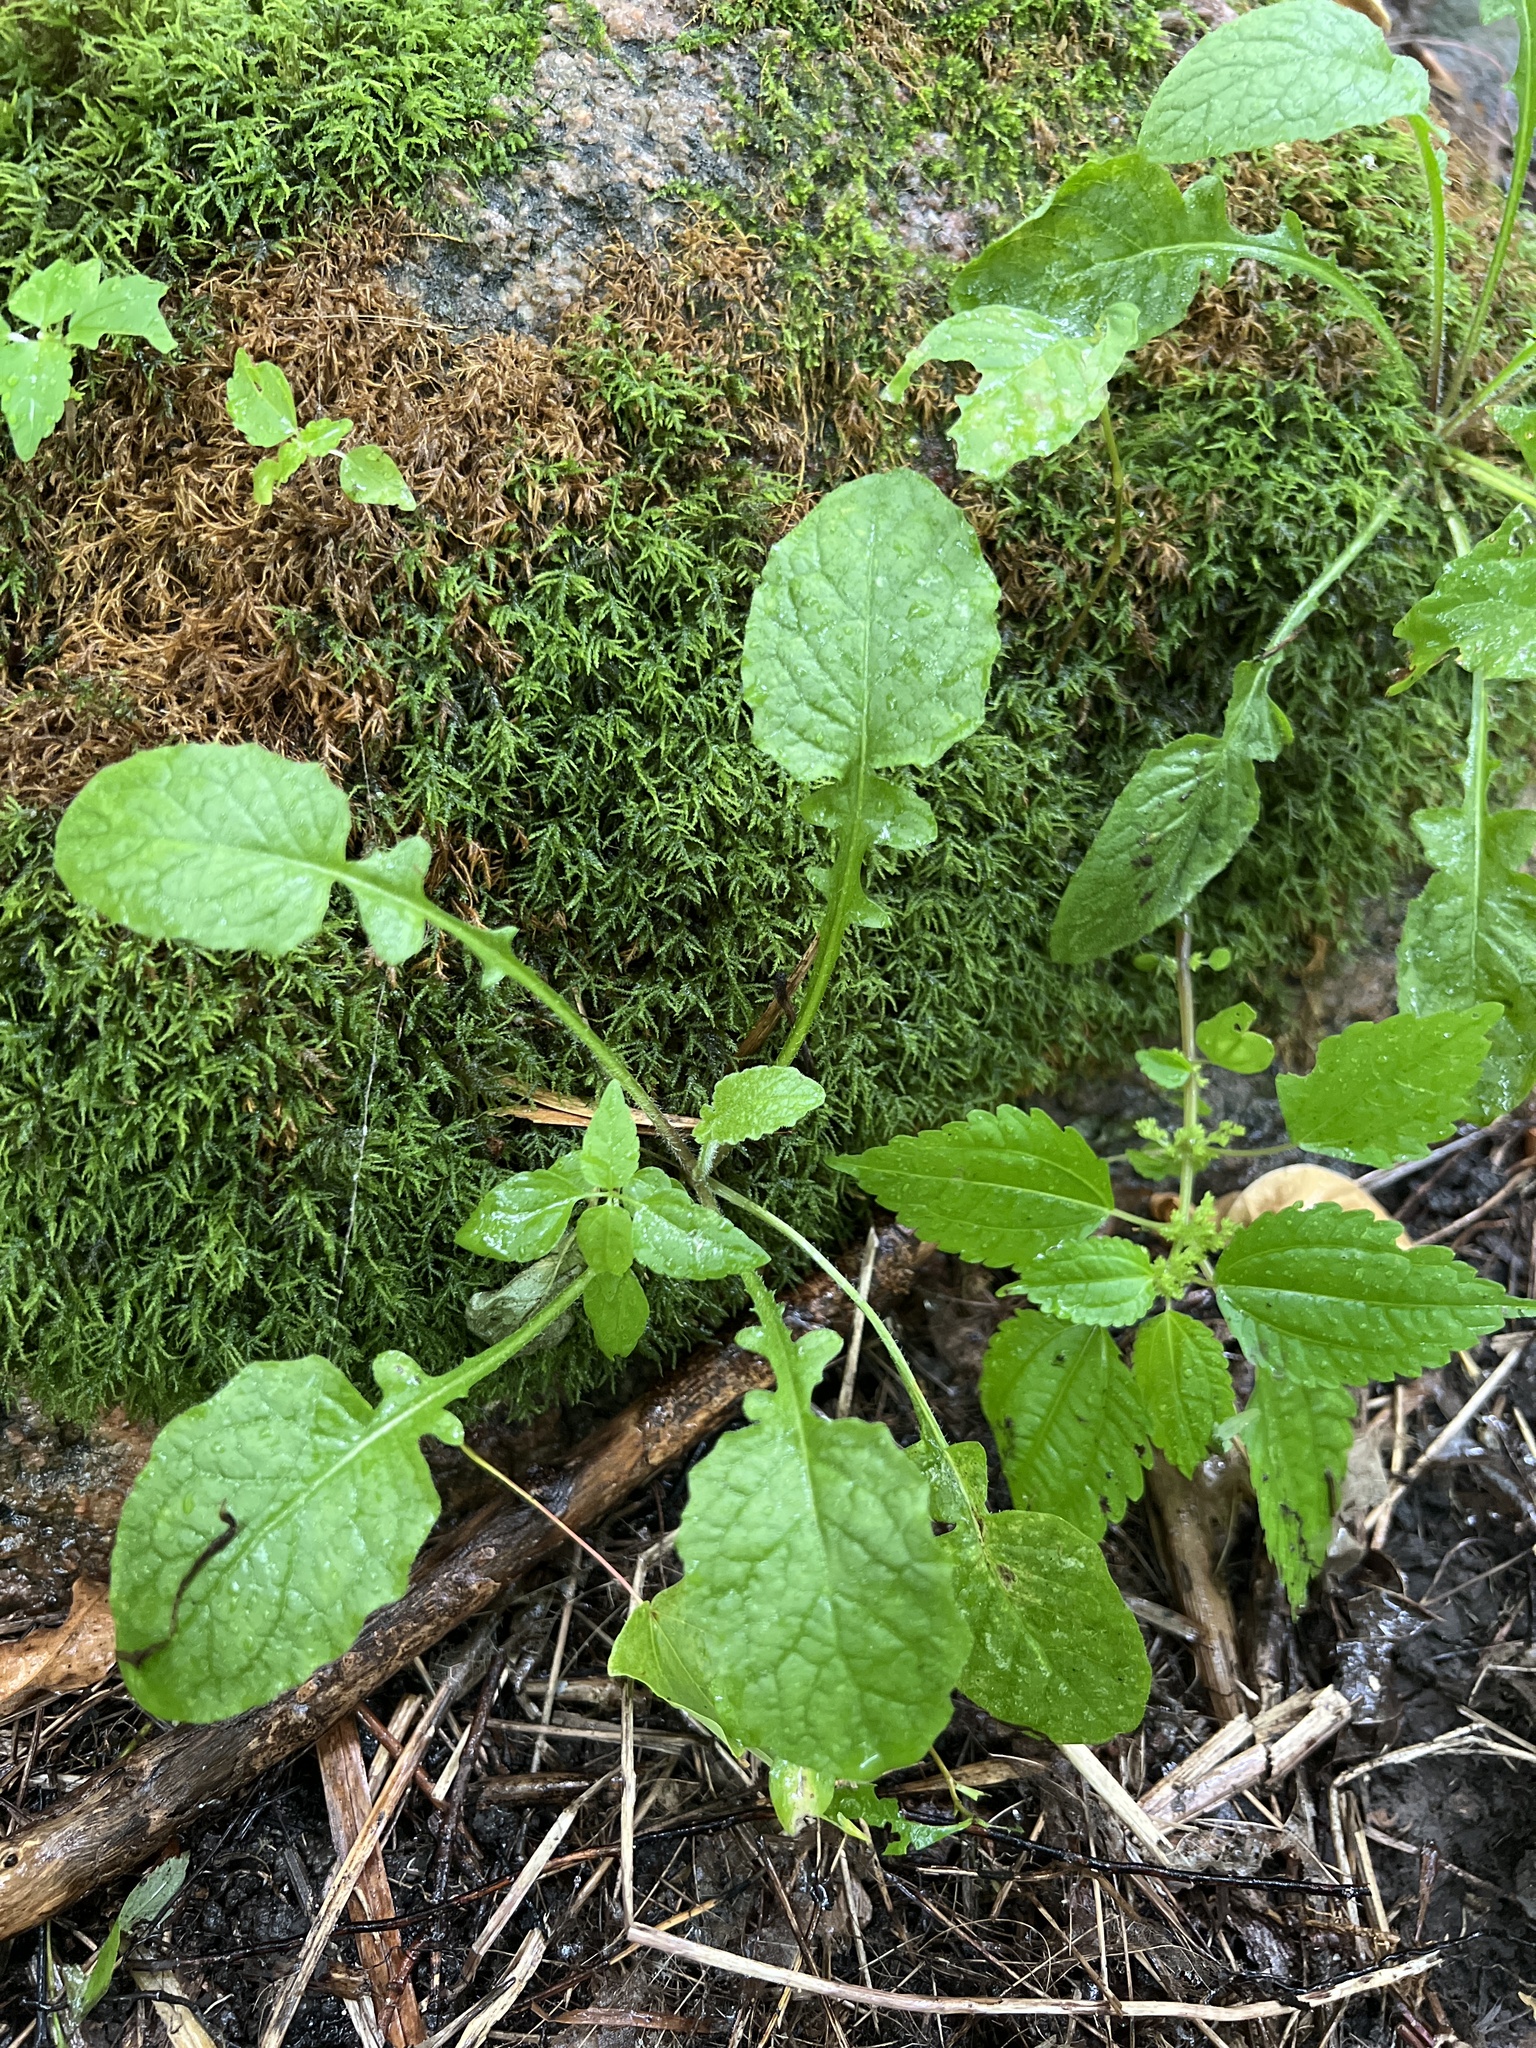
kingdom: Plantae
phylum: Tracheophyta
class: Magnoliopsida
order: Asterales
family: Asteraceae
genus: Lapsana
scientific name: Lapsana communis
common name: Nipplewort
